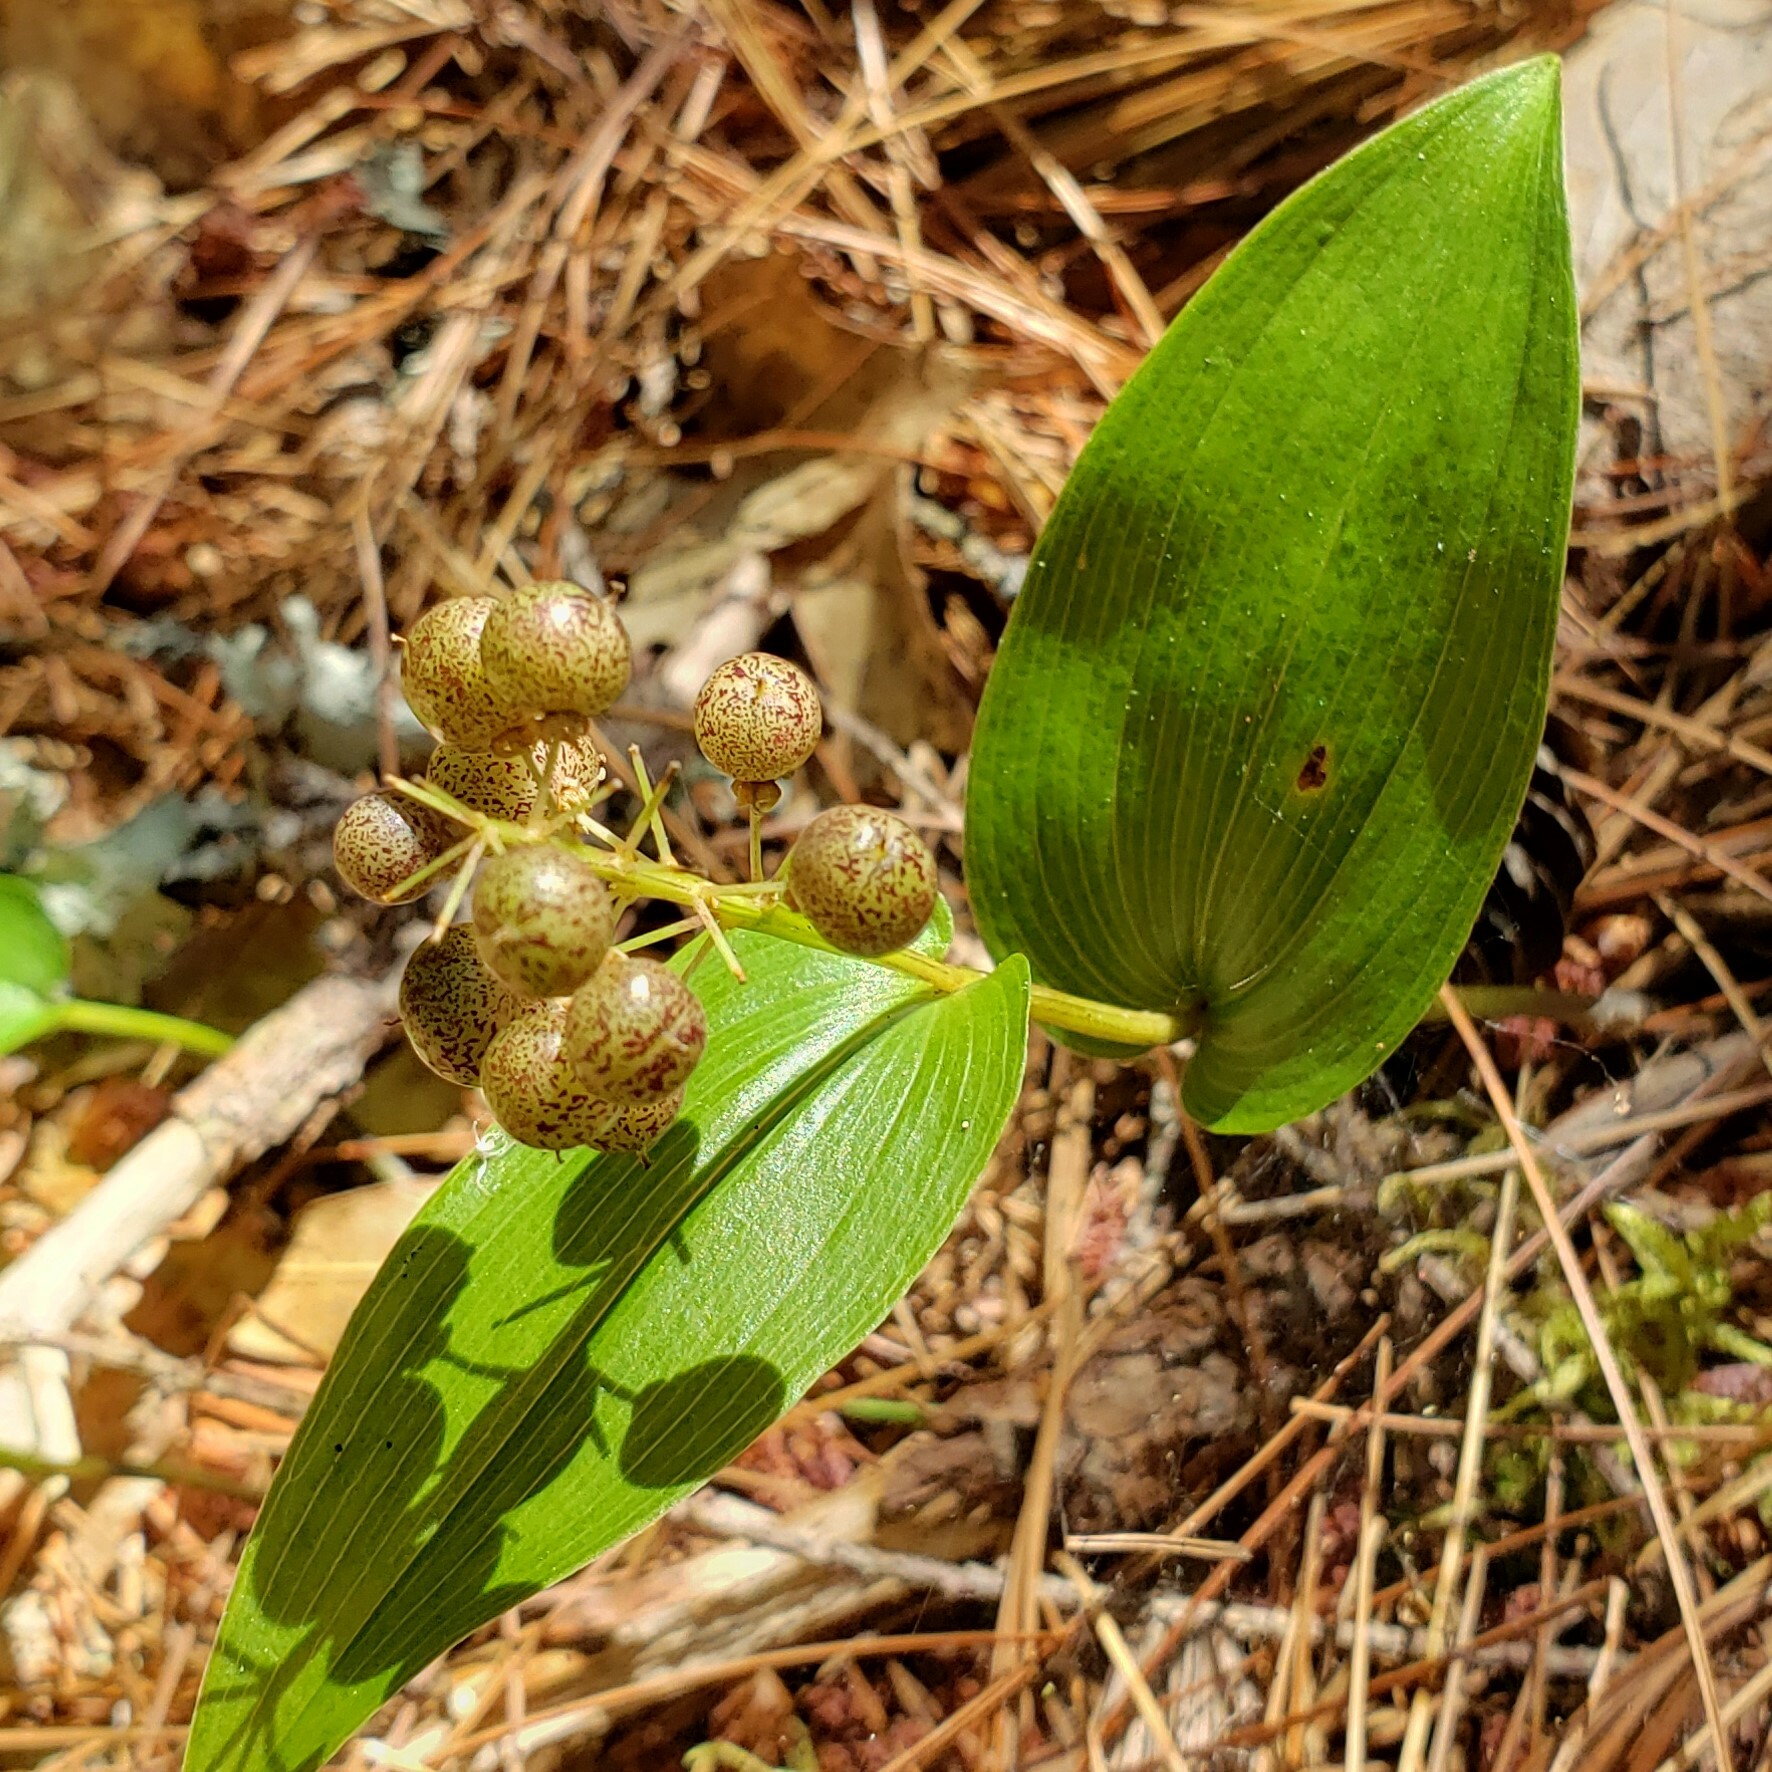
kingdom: Plantae
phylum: Tracheophyta
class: Liliopsida
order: Asparagales
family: Asparagaceae
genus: Maianthemum
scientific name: Maianthemum canadense
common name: False lily-of-the-valley
